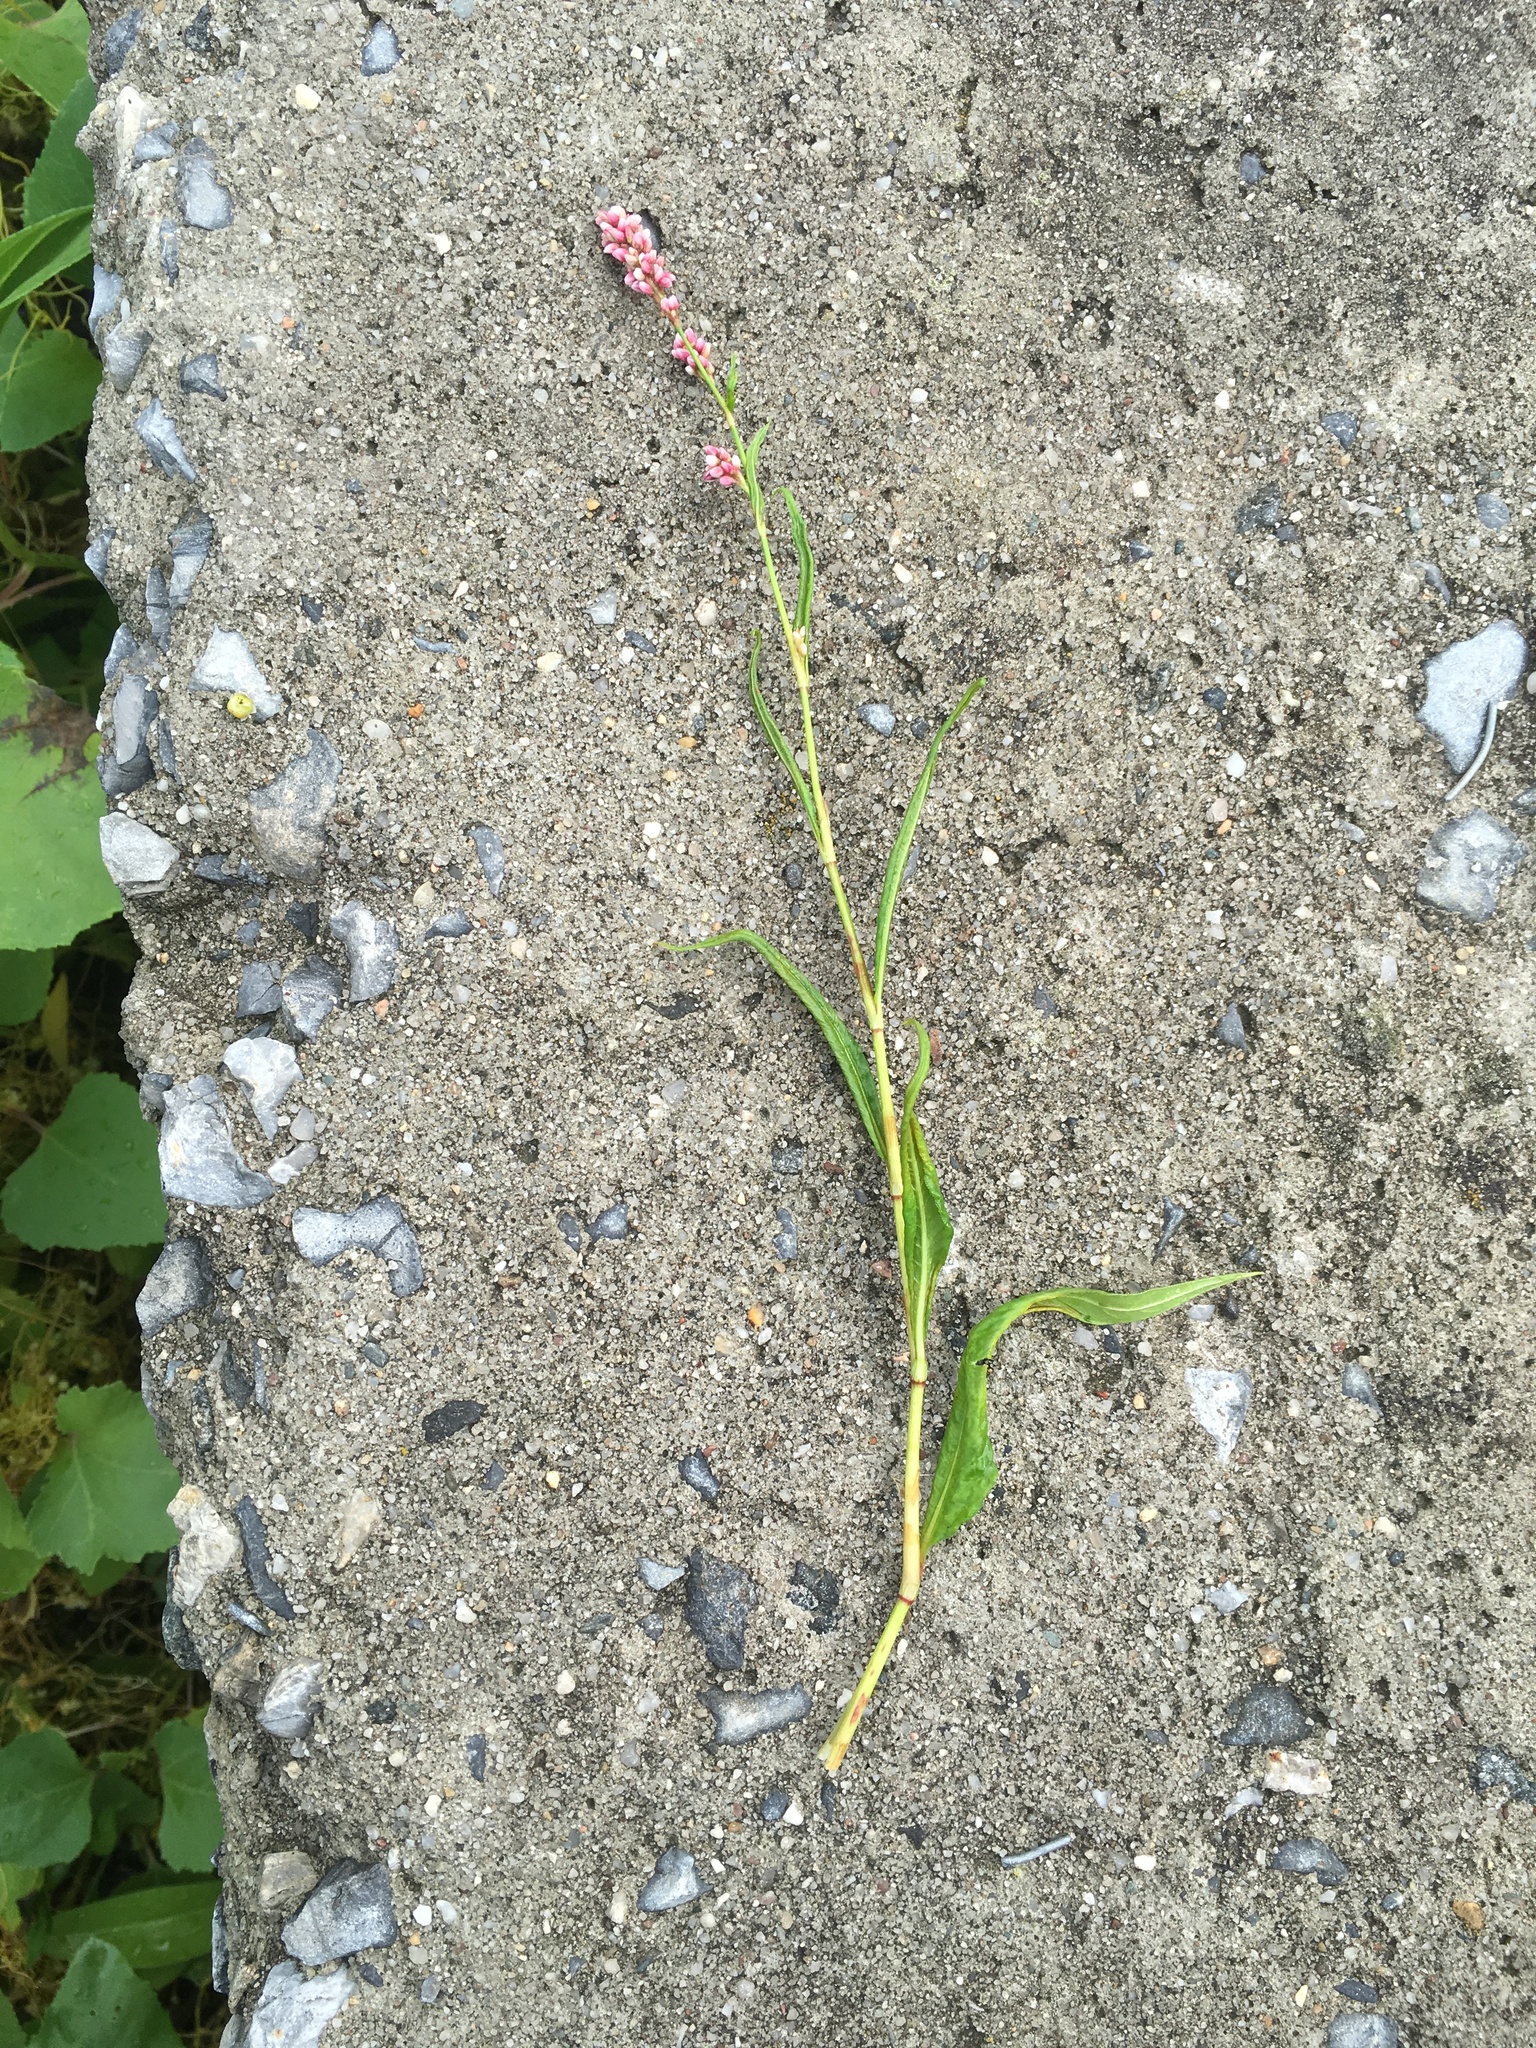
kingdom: Plantae
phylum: Tracheophyta
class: Magnoliopsida
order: Caryophyllales
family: Polygonaceae
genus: Persicaria
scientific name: Persicaria maculosa
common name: Redshank
